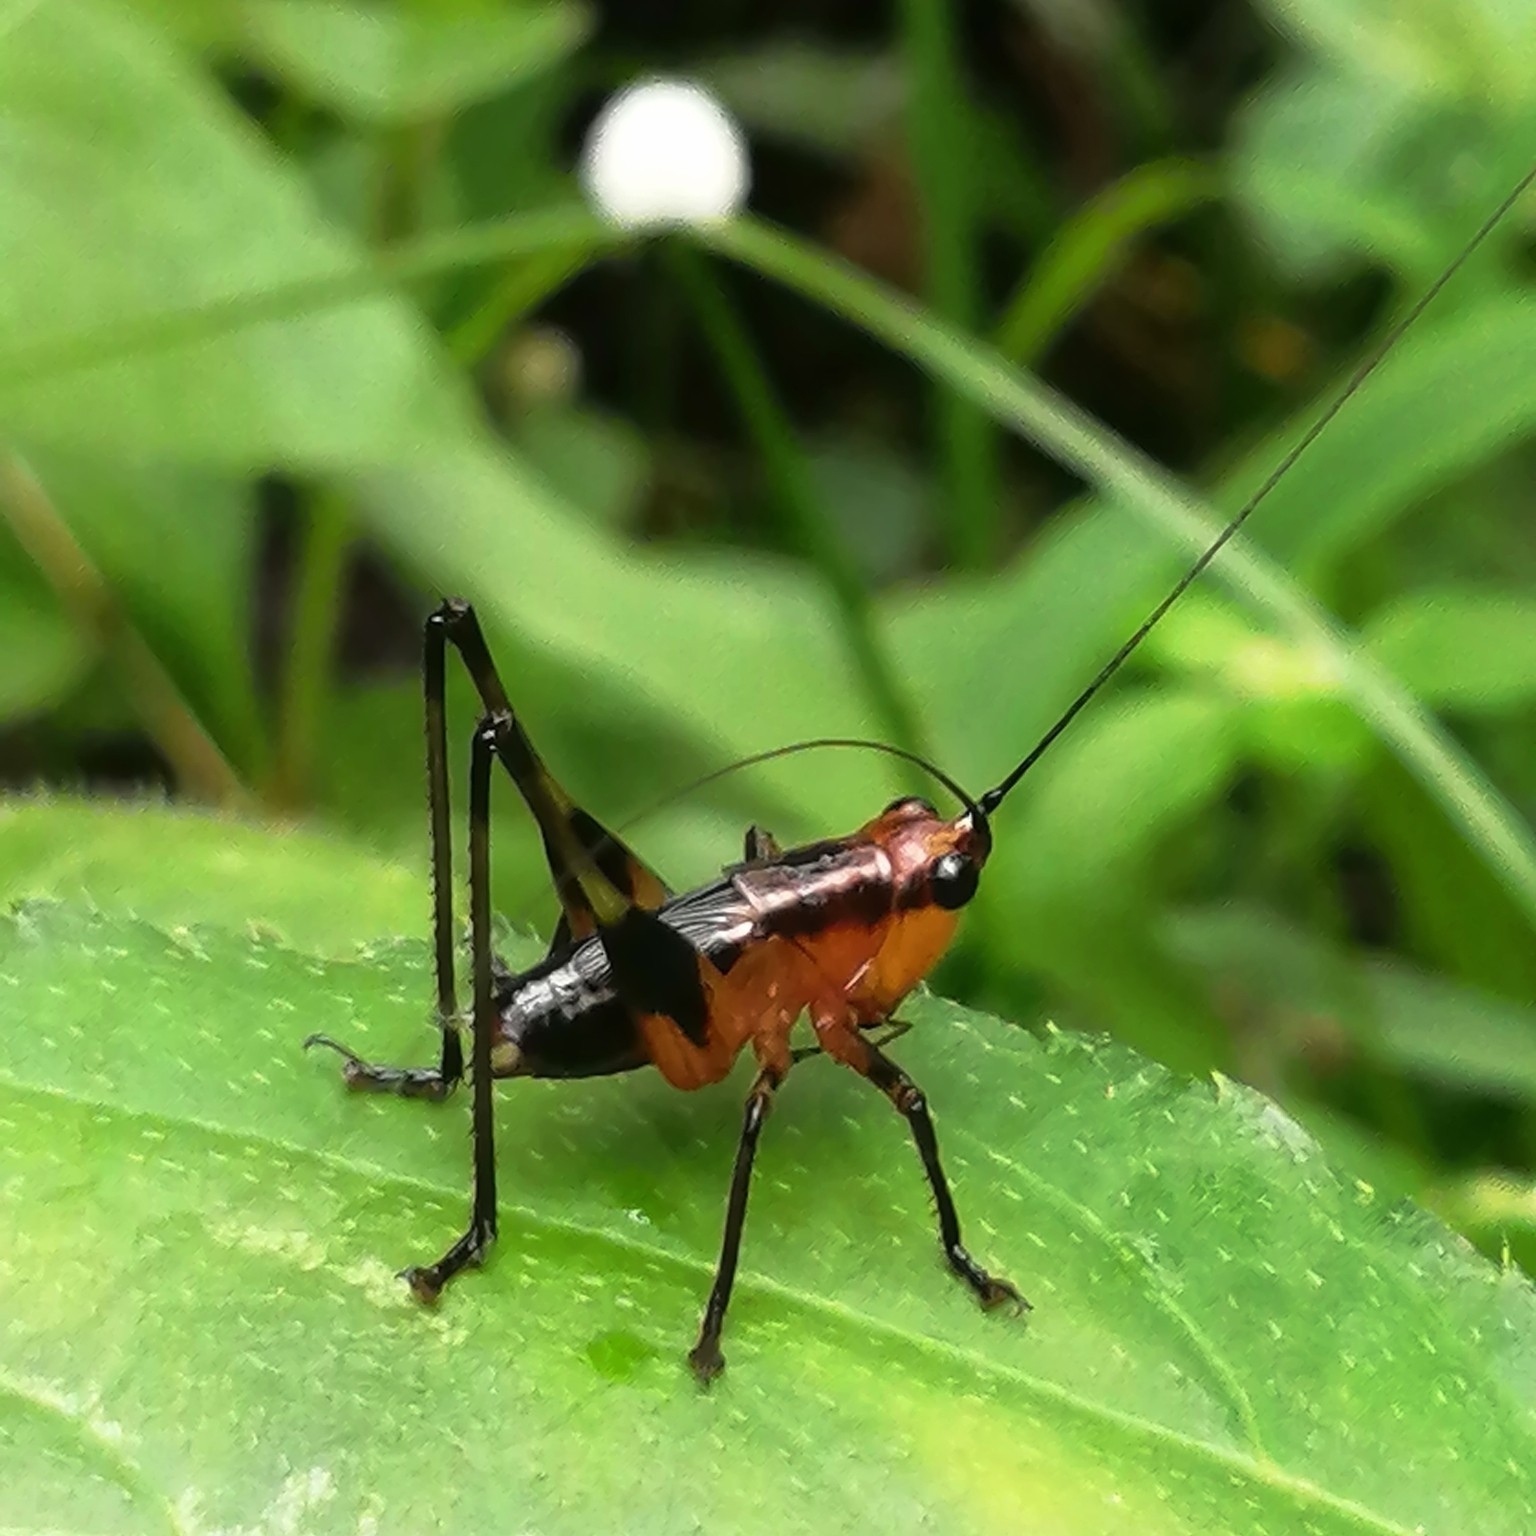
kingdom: Animalia
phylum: Arthropoda
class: Insecta
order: Orthoptera
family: Tettigoniidae
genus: Conocephalus
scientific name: Conocephalus melaenus
